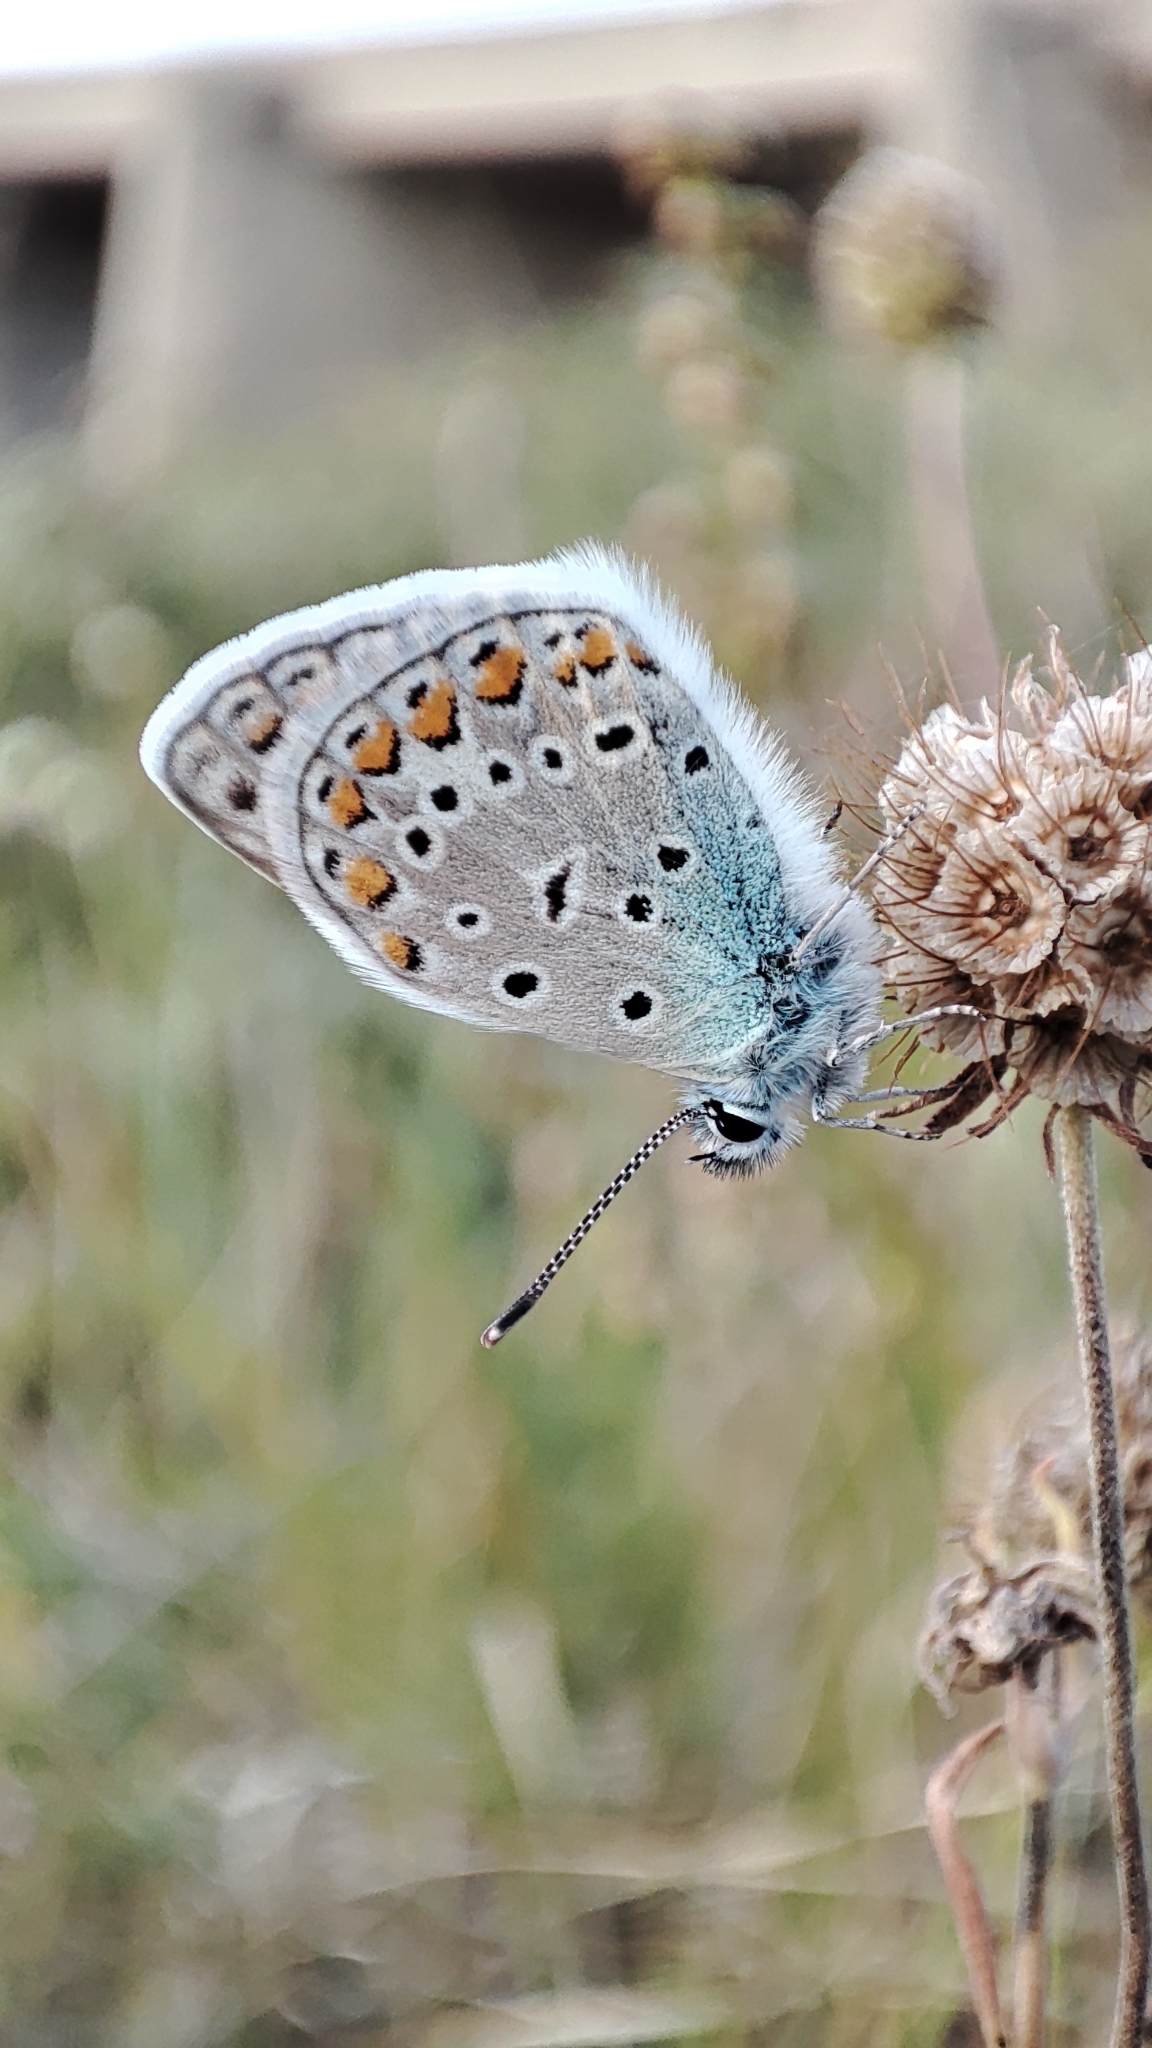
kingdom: Animalia
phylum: Arthropoda
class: Insecta
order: Lepidoptera
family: Lycaenidae
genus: Polyommatus
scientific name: Polyommatus icarus
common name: Common blue
